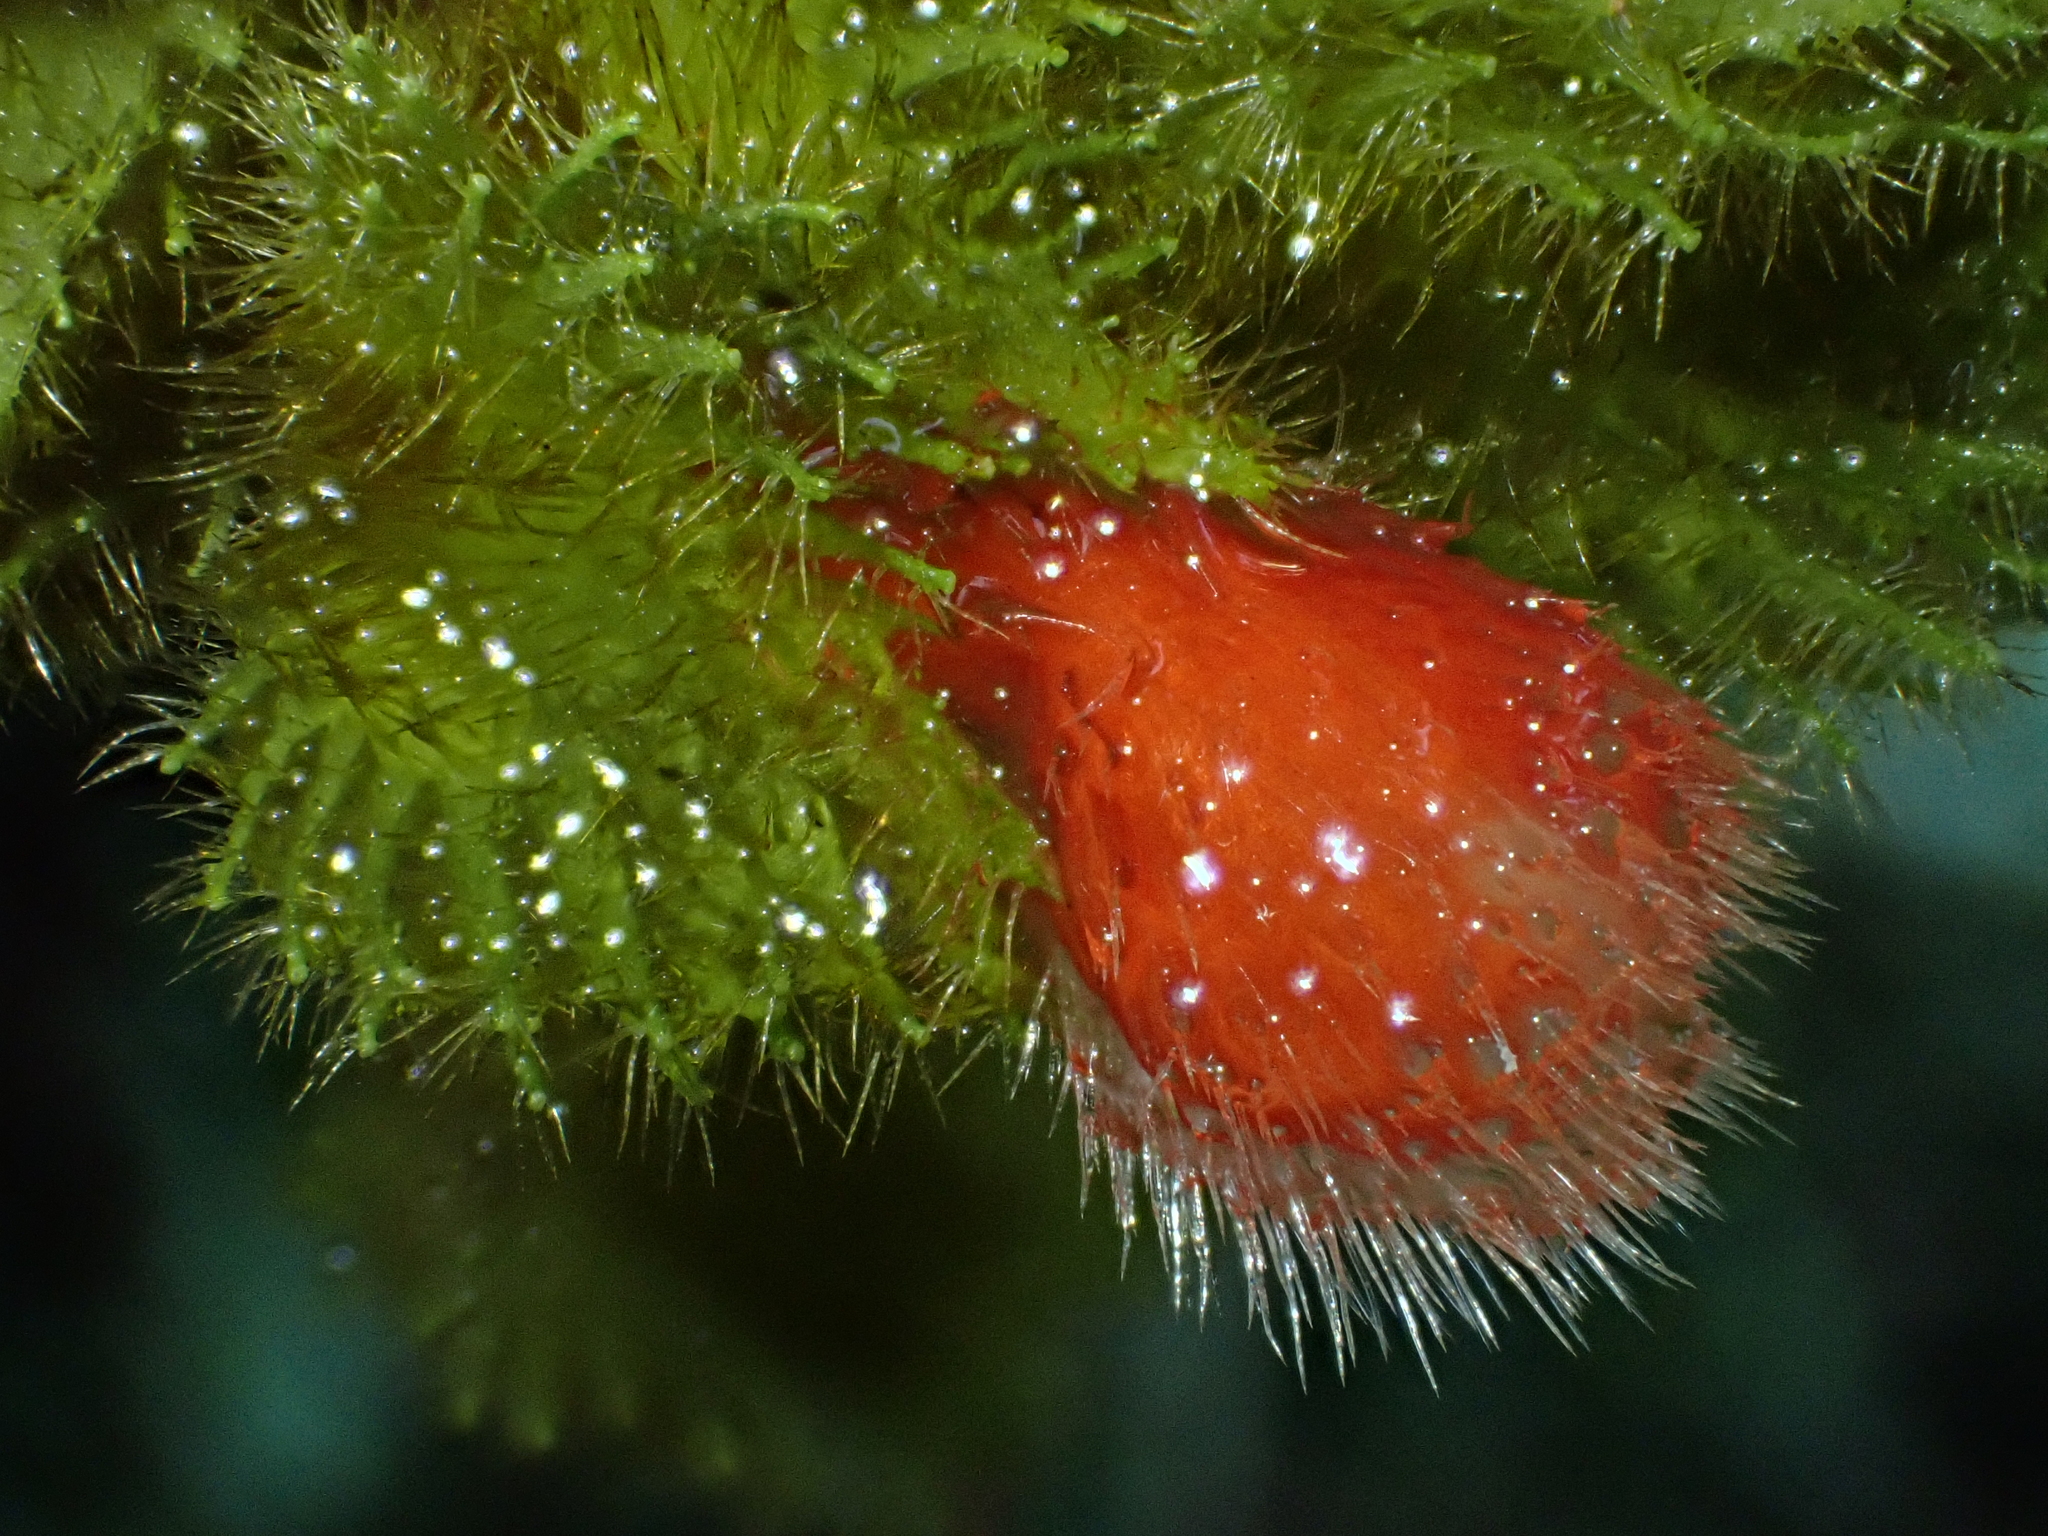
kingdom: Plantae
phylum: Tracheophyta
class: Magnoliopsida
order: Lamiales
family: Gesneriaceae
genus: Glossoloma
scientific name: Glossoloma anomalum
